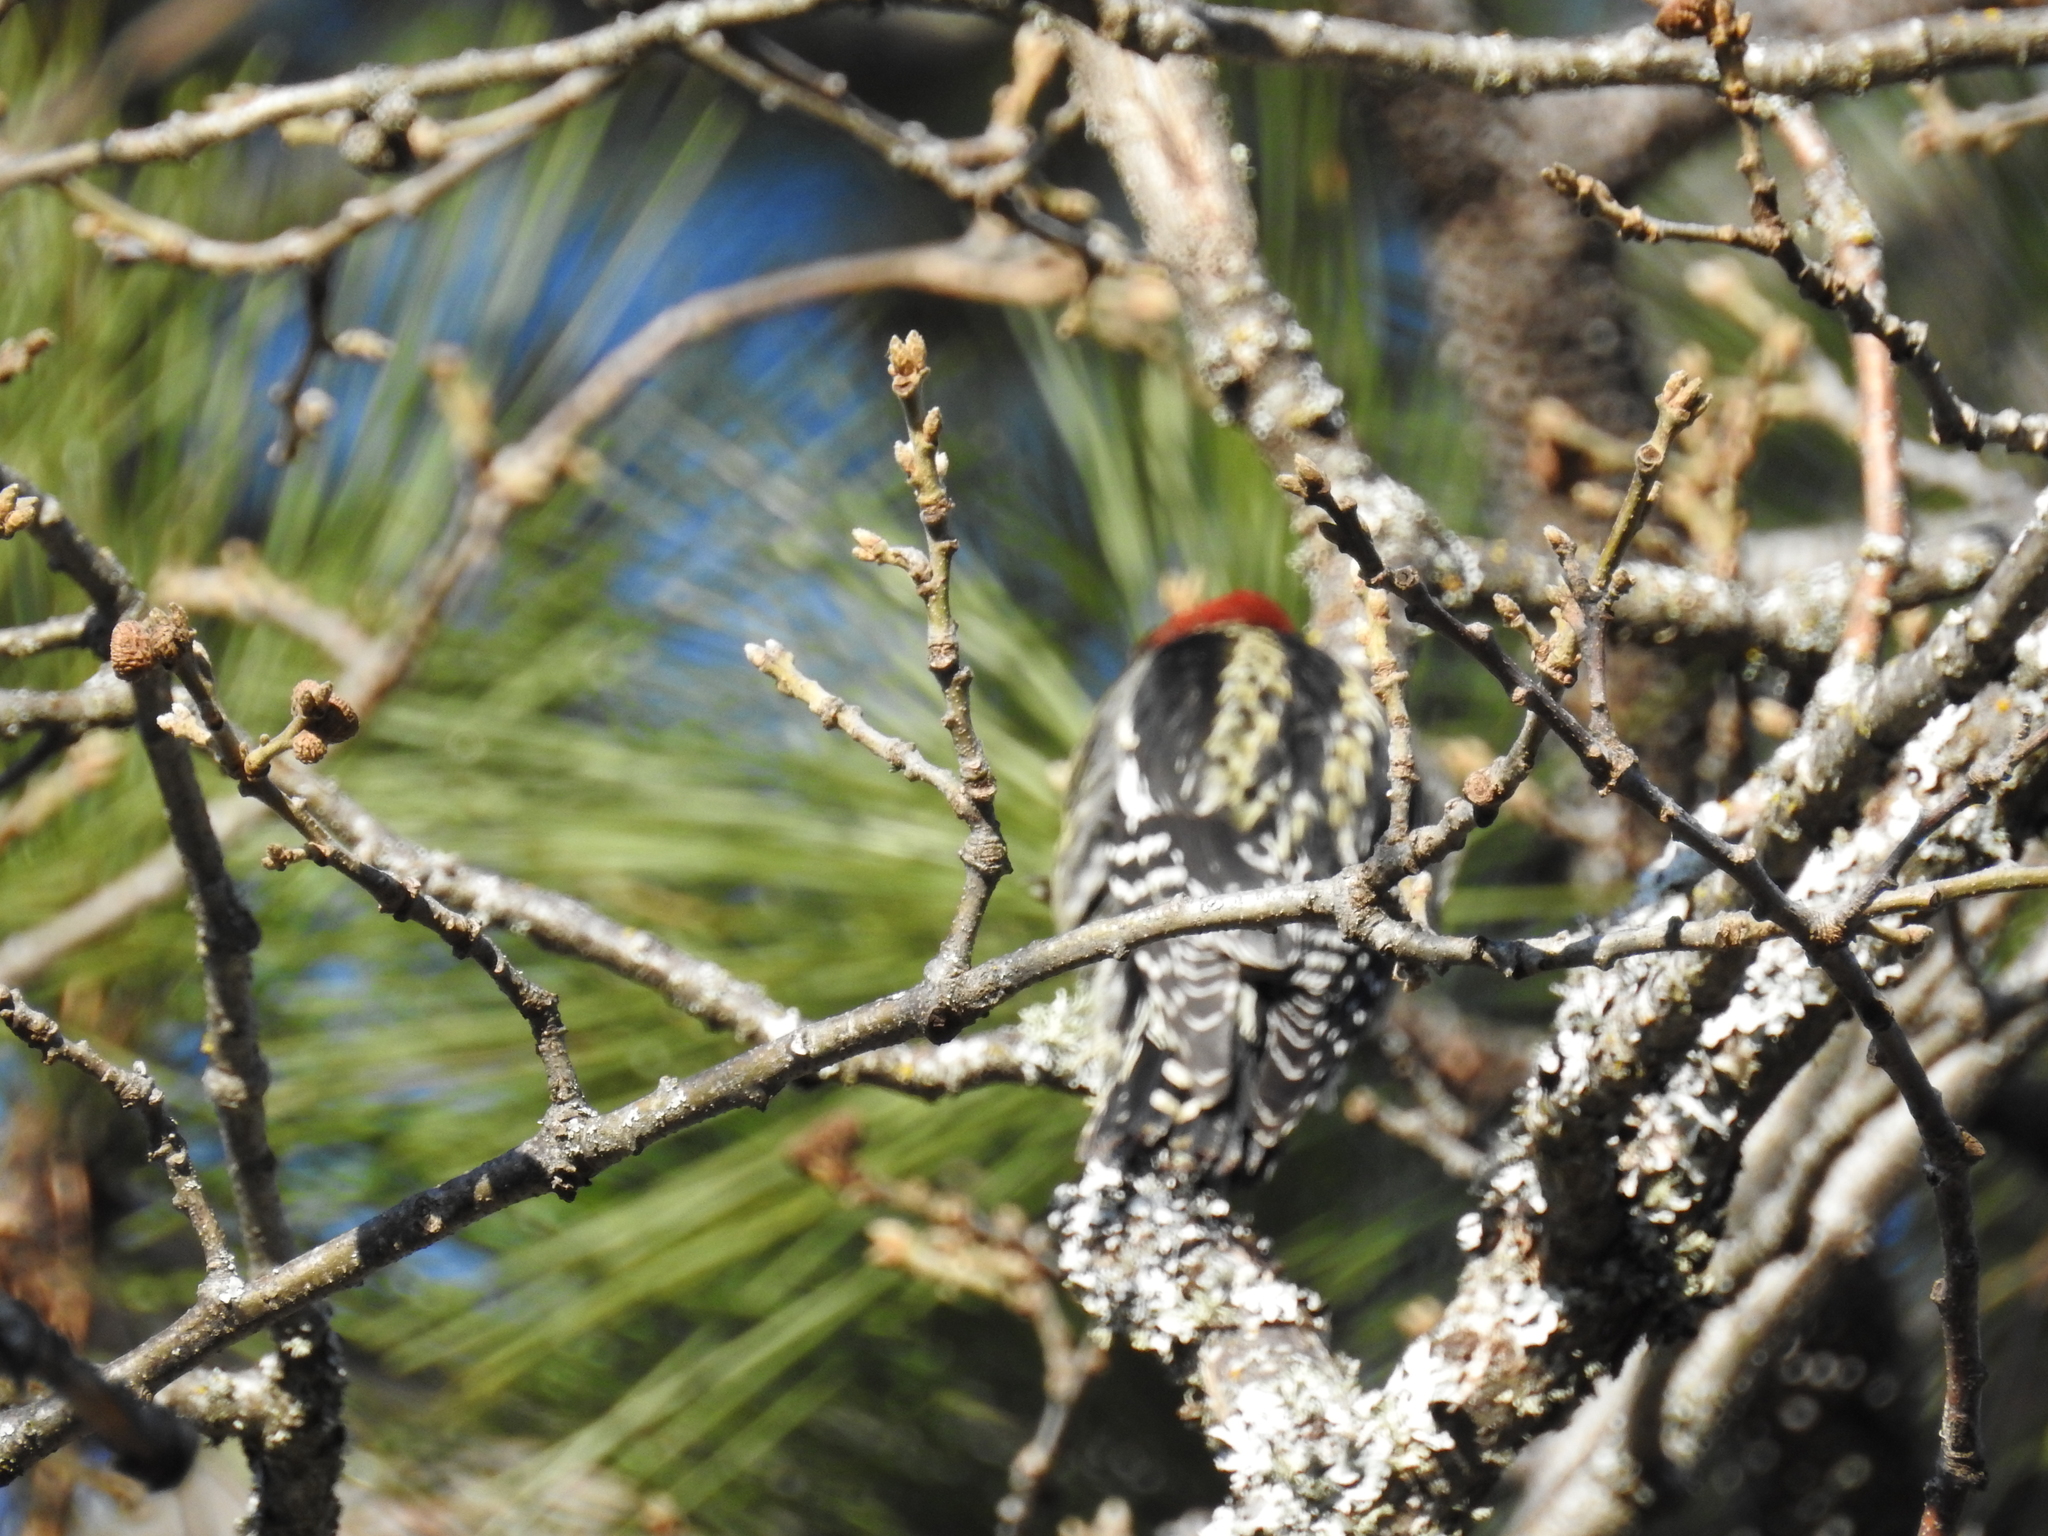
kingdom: Animalia
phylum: Chordata
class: Aves
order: Piciformes
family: Picidae
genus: Sphyrapicus
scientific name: Sphyrapicus ruber
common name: Red-breasted sapsucker
